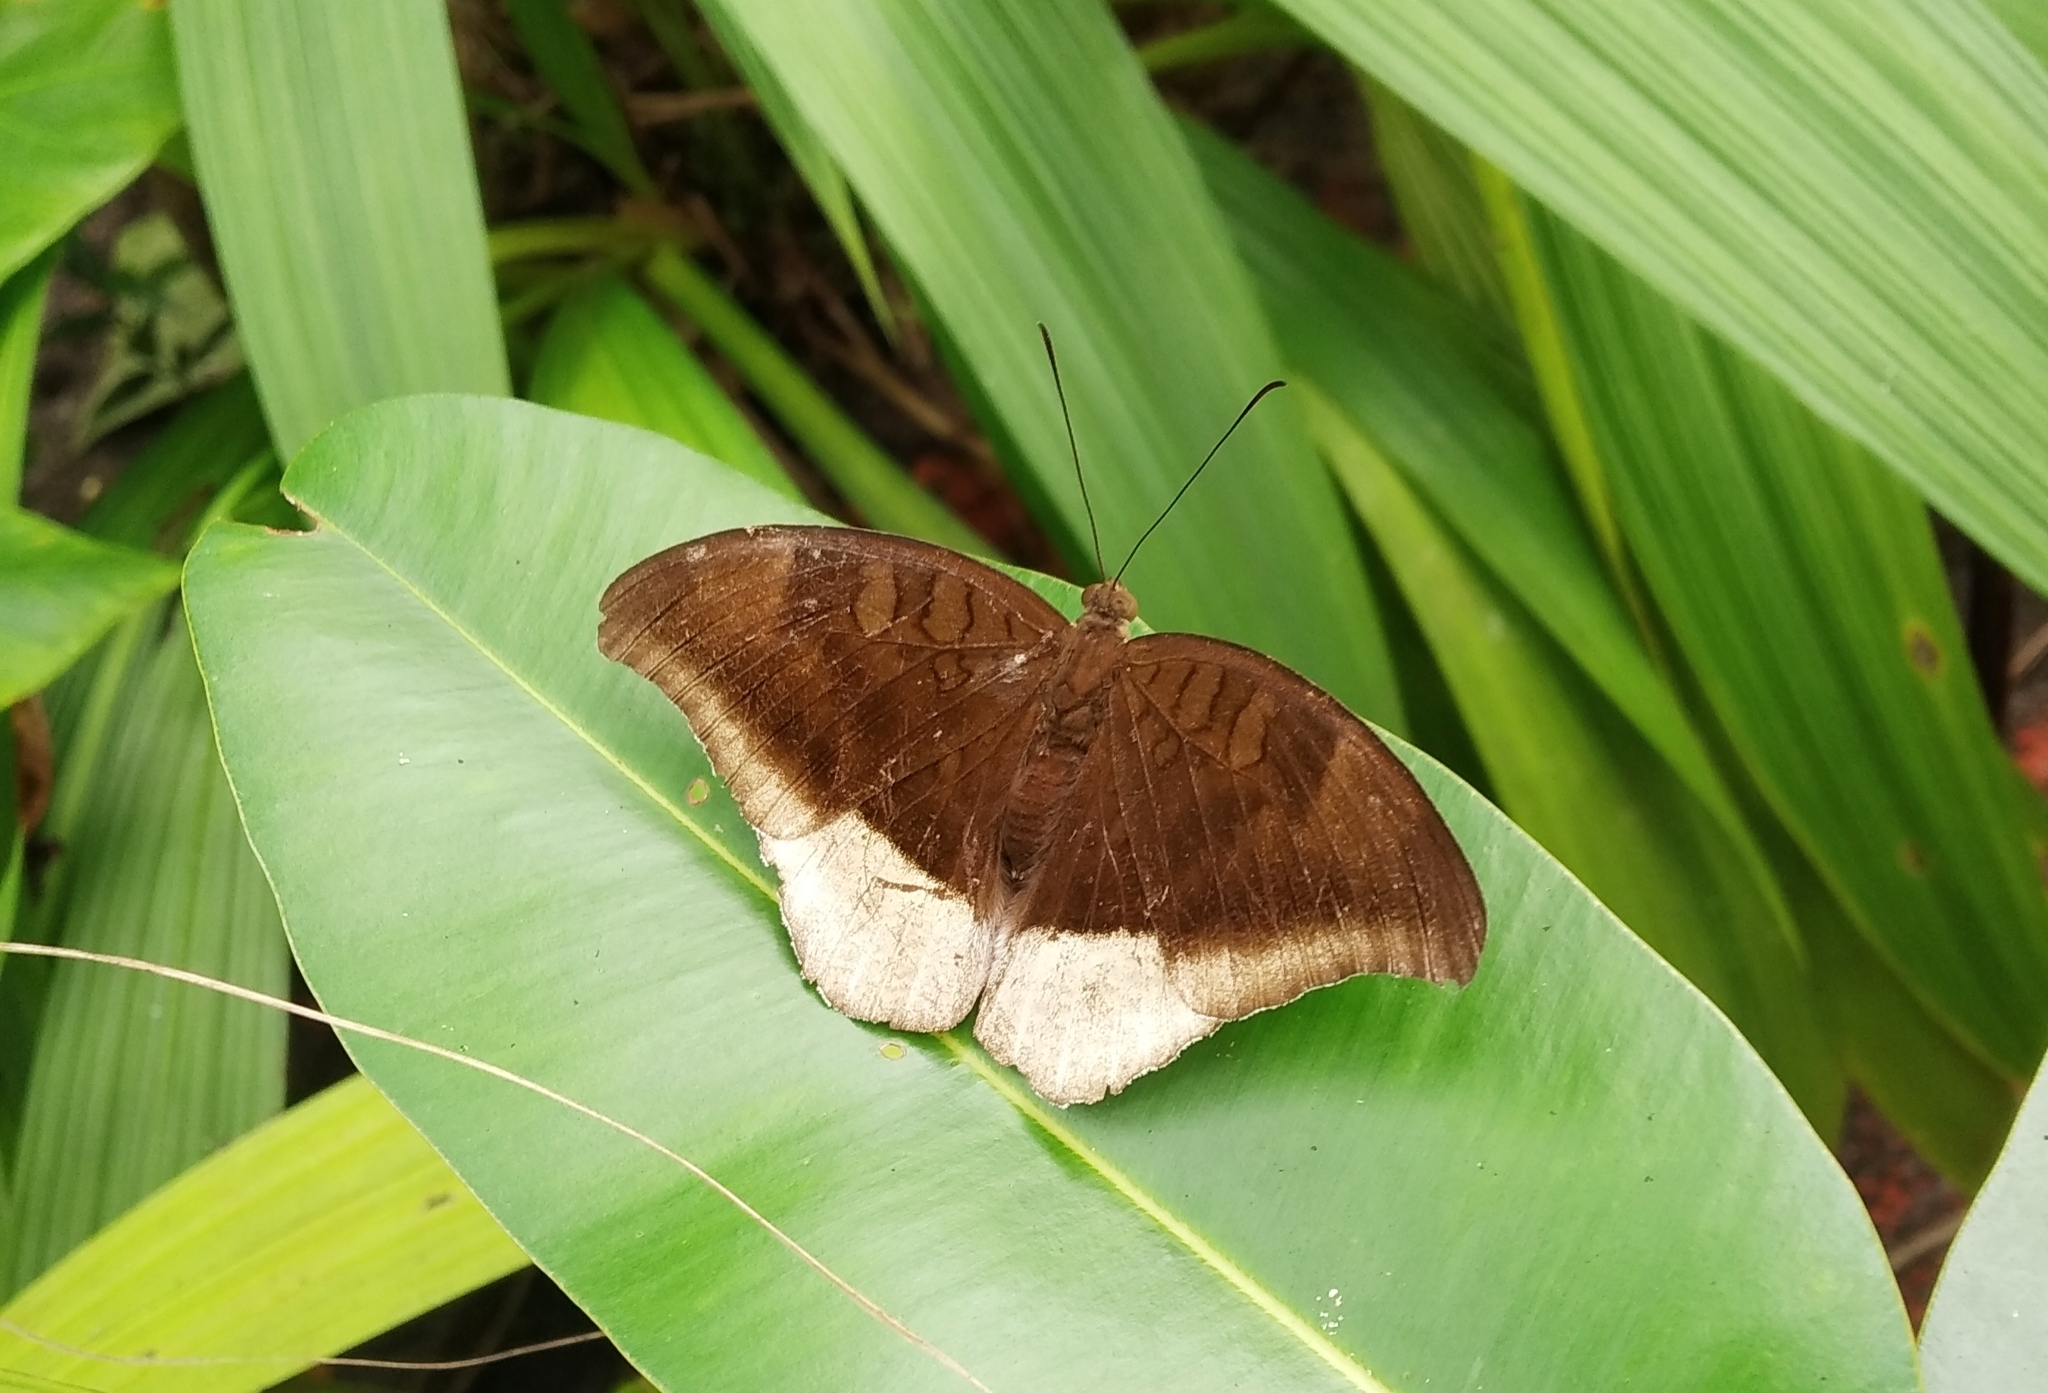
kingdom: Animalia
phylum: Arthropoda
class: Insecta
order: Lepidoptera
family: Nymphalidae
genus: Tanaecia
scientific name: Tanaecia lepidea
